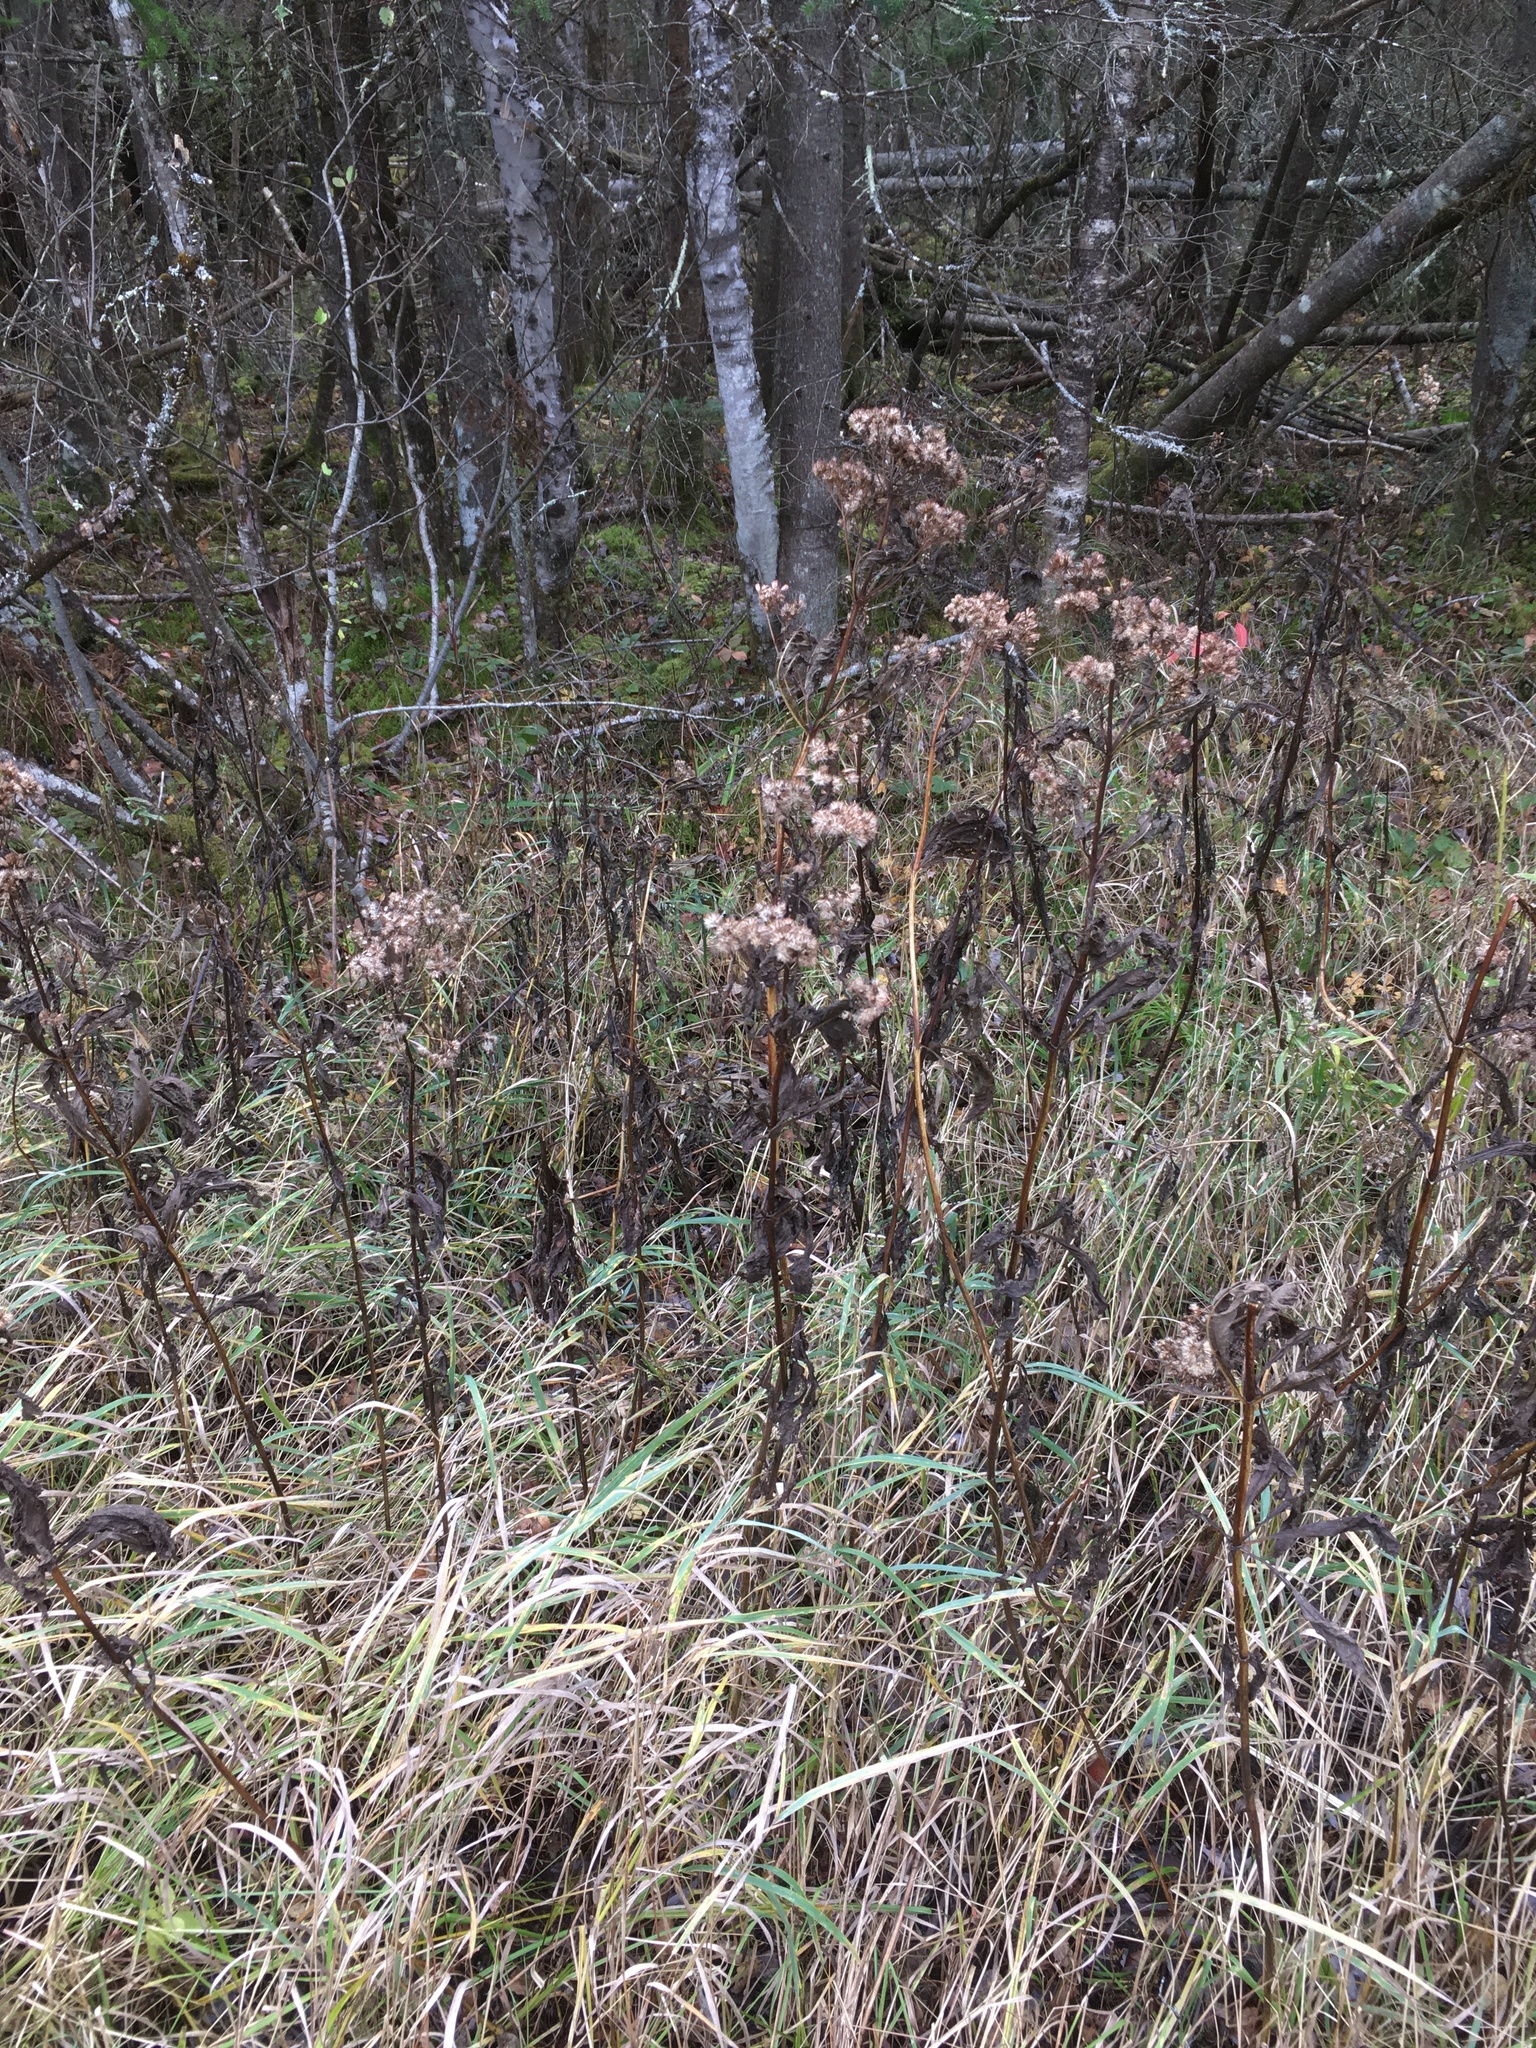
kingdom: Plantae
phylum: Tracheophyta
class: Magnoliopsida
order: Asterales
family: Asteraceae
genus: Eutrochium
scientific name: Eutrochium maculatum
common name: Spotted joe pye weed
